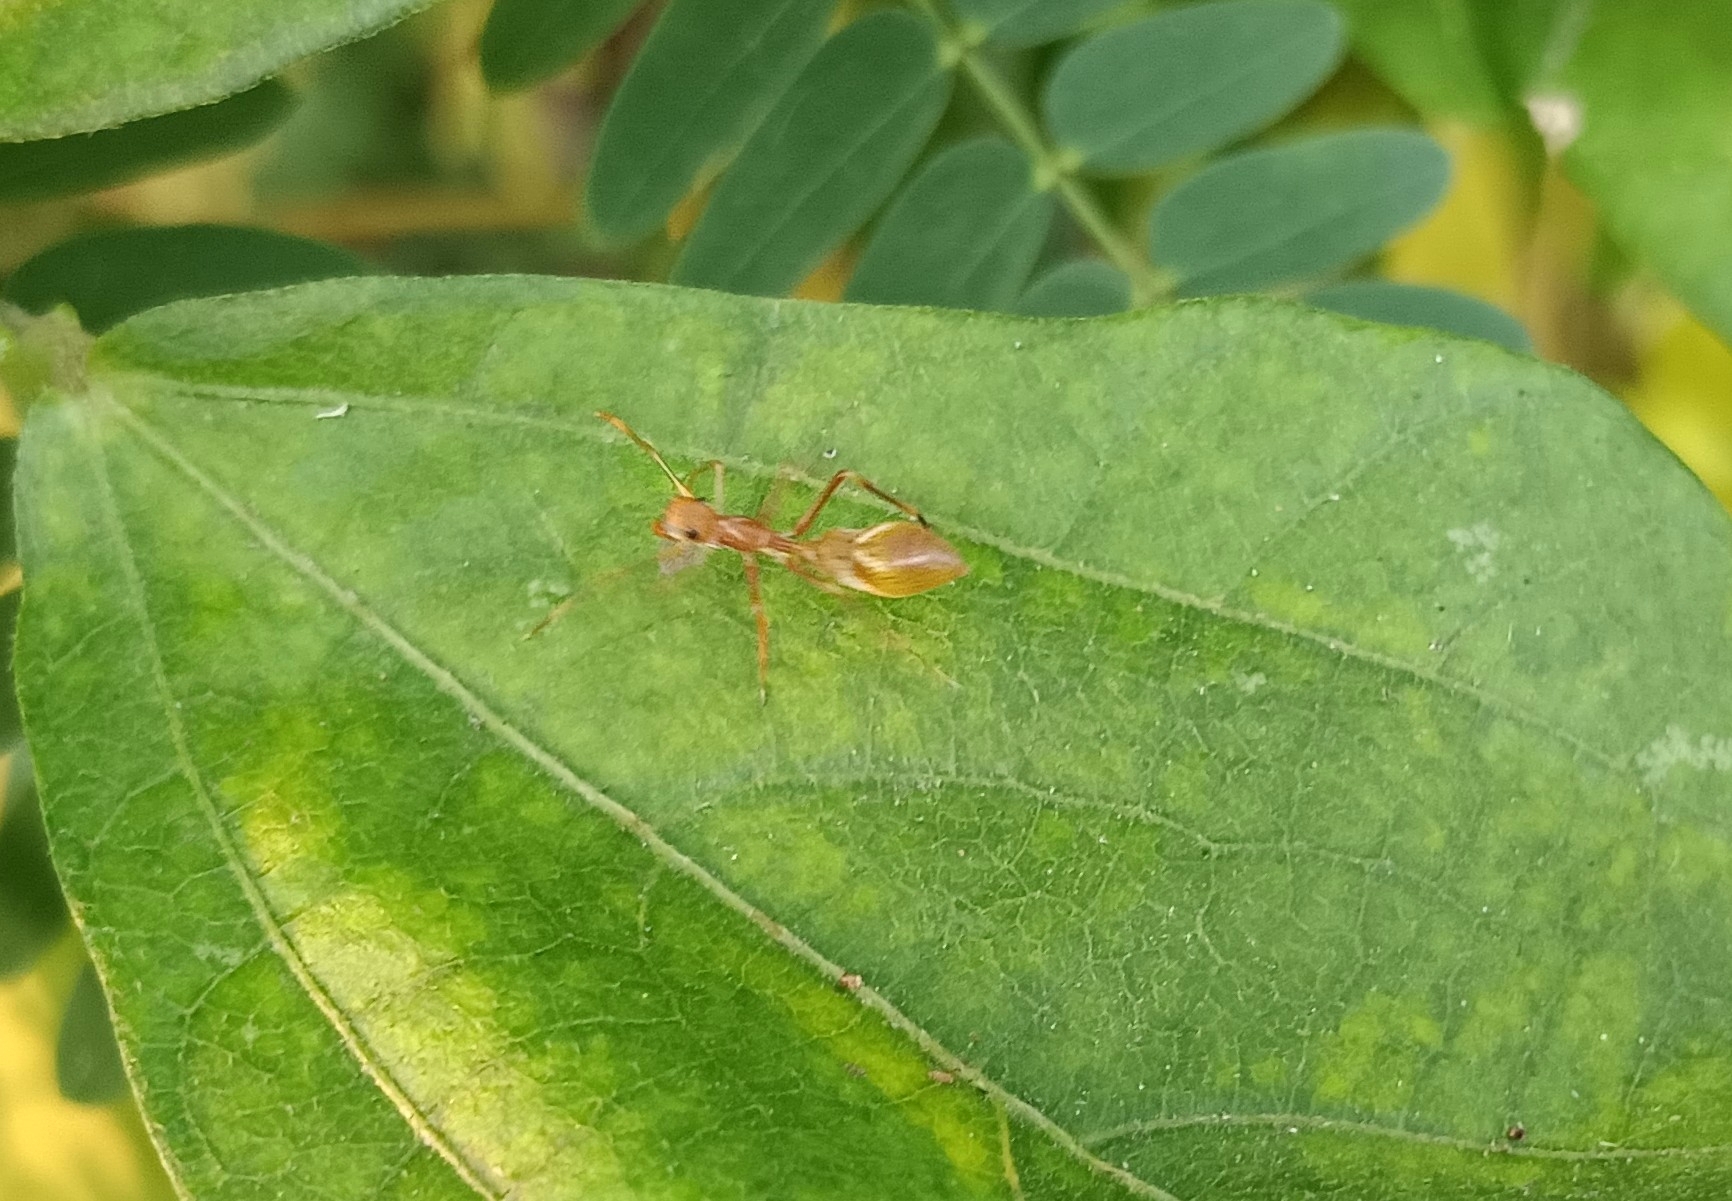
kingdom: Animalia
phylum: Arthropoda
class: Arachnida
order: Araneae
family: Salticidae
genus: Myrmaplata
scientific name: Myrmaplata plataleoides
